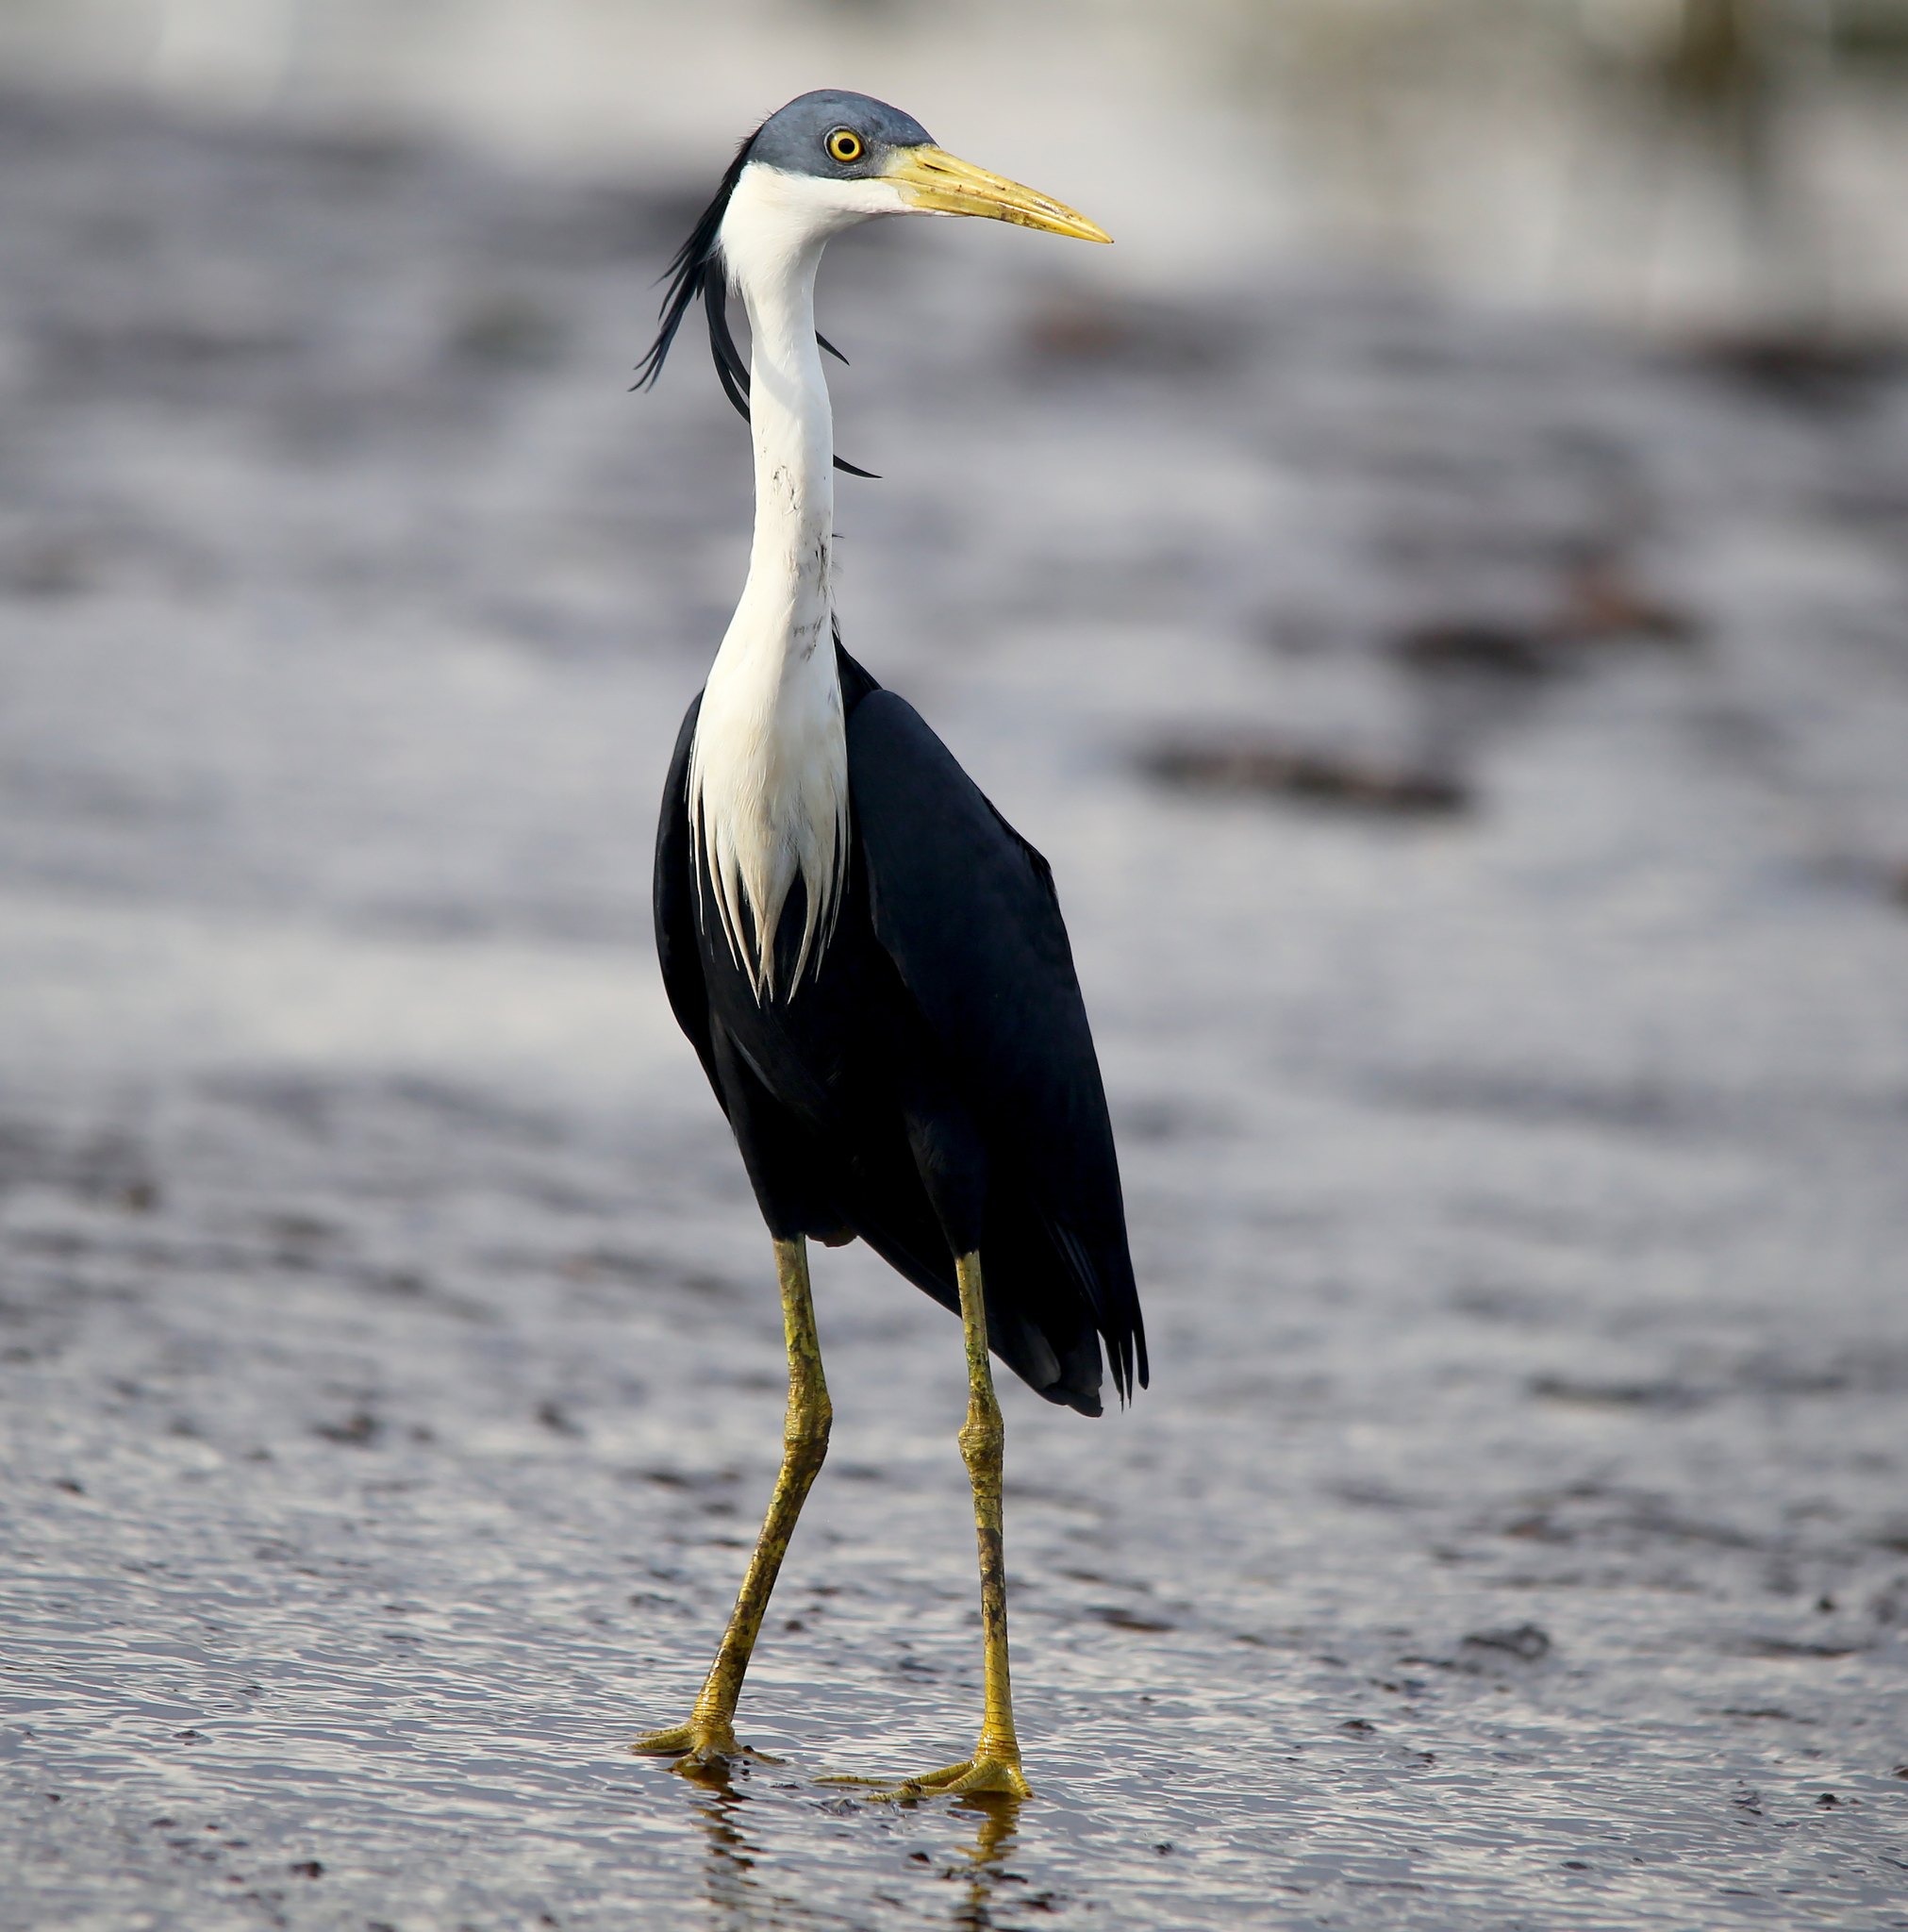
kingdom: Animalia
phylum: Chordata
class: Aves
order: Pelecaniformes
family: Ardeidae
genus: Egretta
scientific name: Egretta picata
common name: Pied heron
